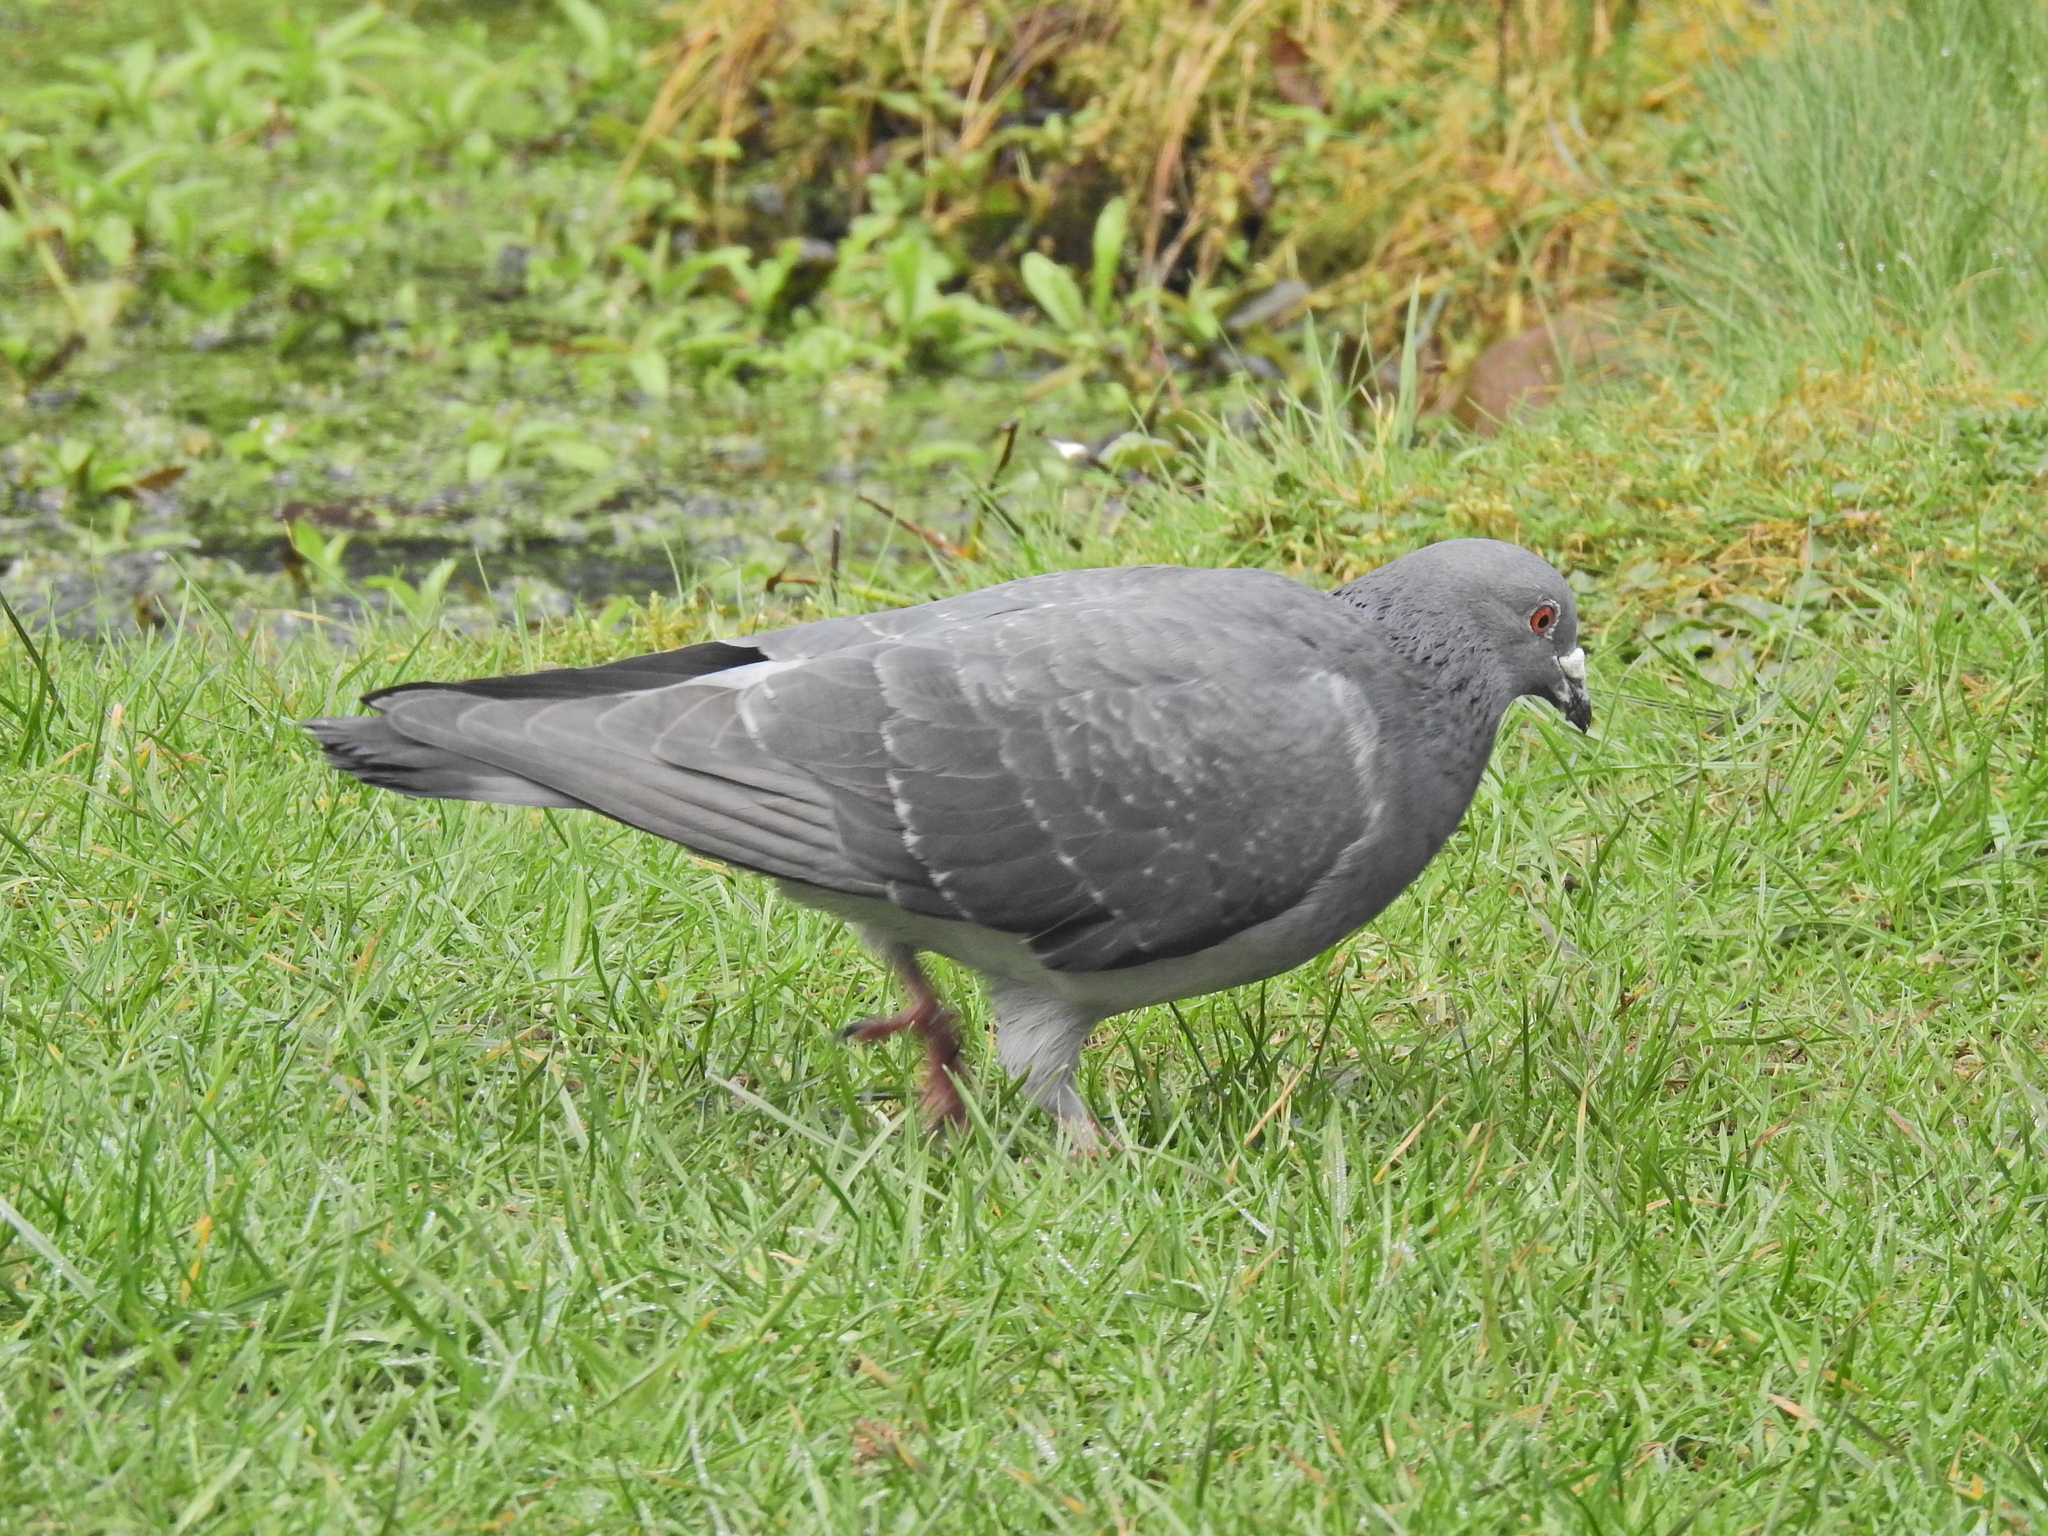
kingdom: Animalia
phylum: Chordata
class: Aves
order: Columbiformes
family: Columbidae
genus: Columba
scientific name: Columba livia
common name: Rock pigeon
